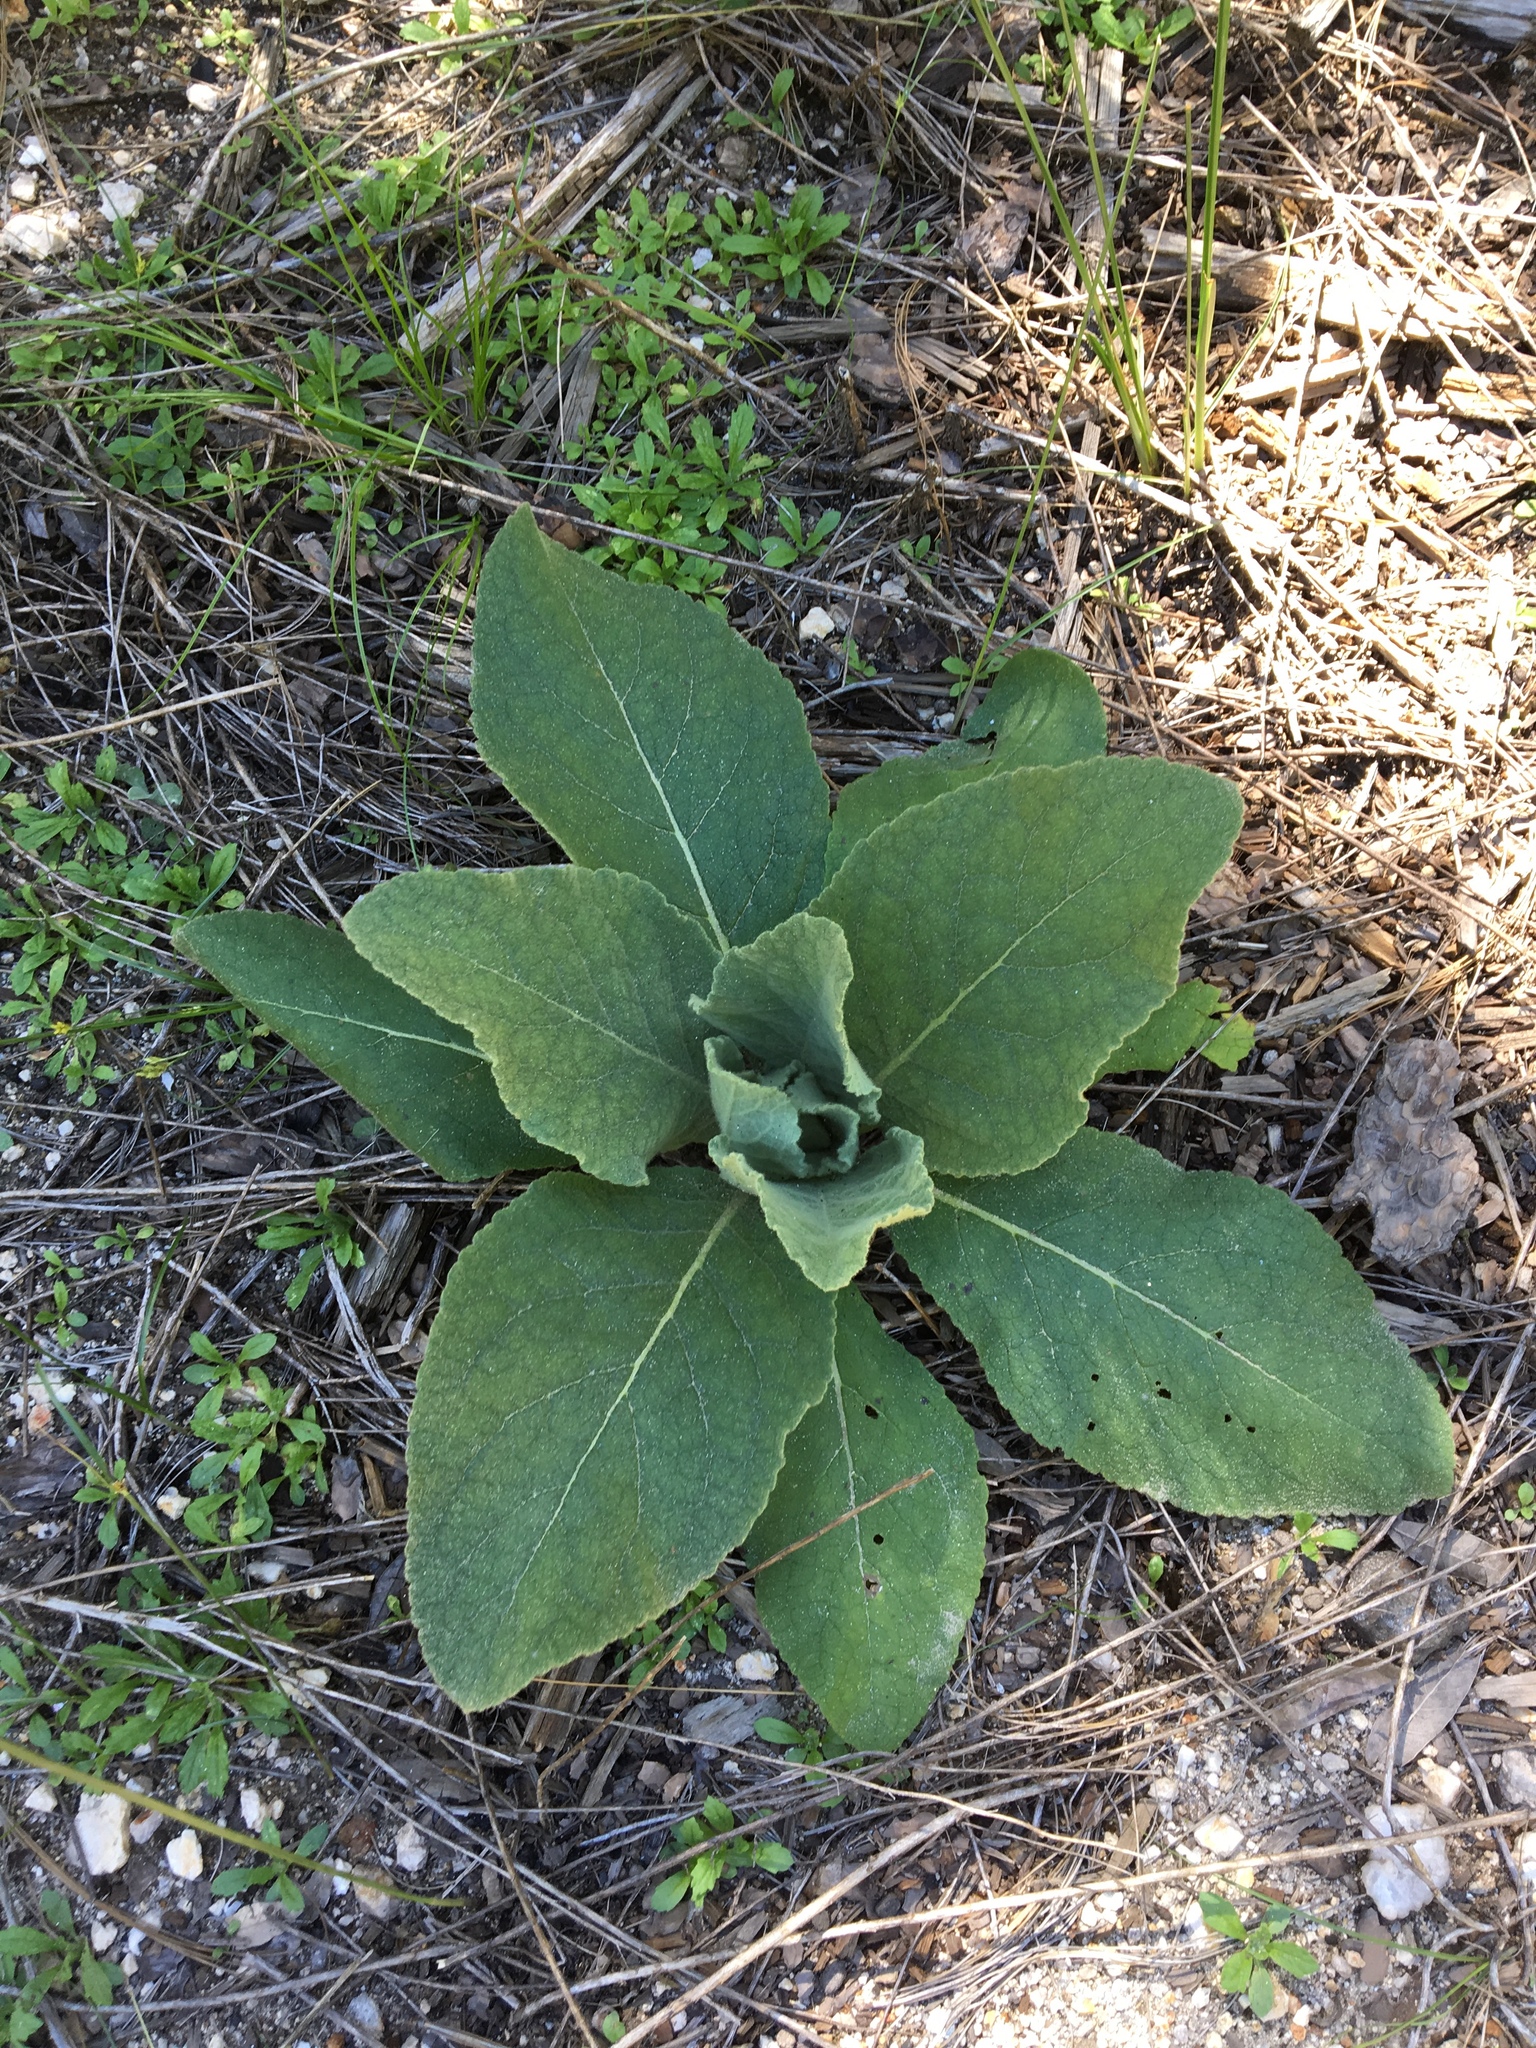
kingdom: Plantae
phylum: Tracheophyta
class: Magnoliopsida
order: Lamiales
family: Scrophulariaceae
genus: Verbascum
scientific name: Verbascum thapsus
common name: Common mullein
